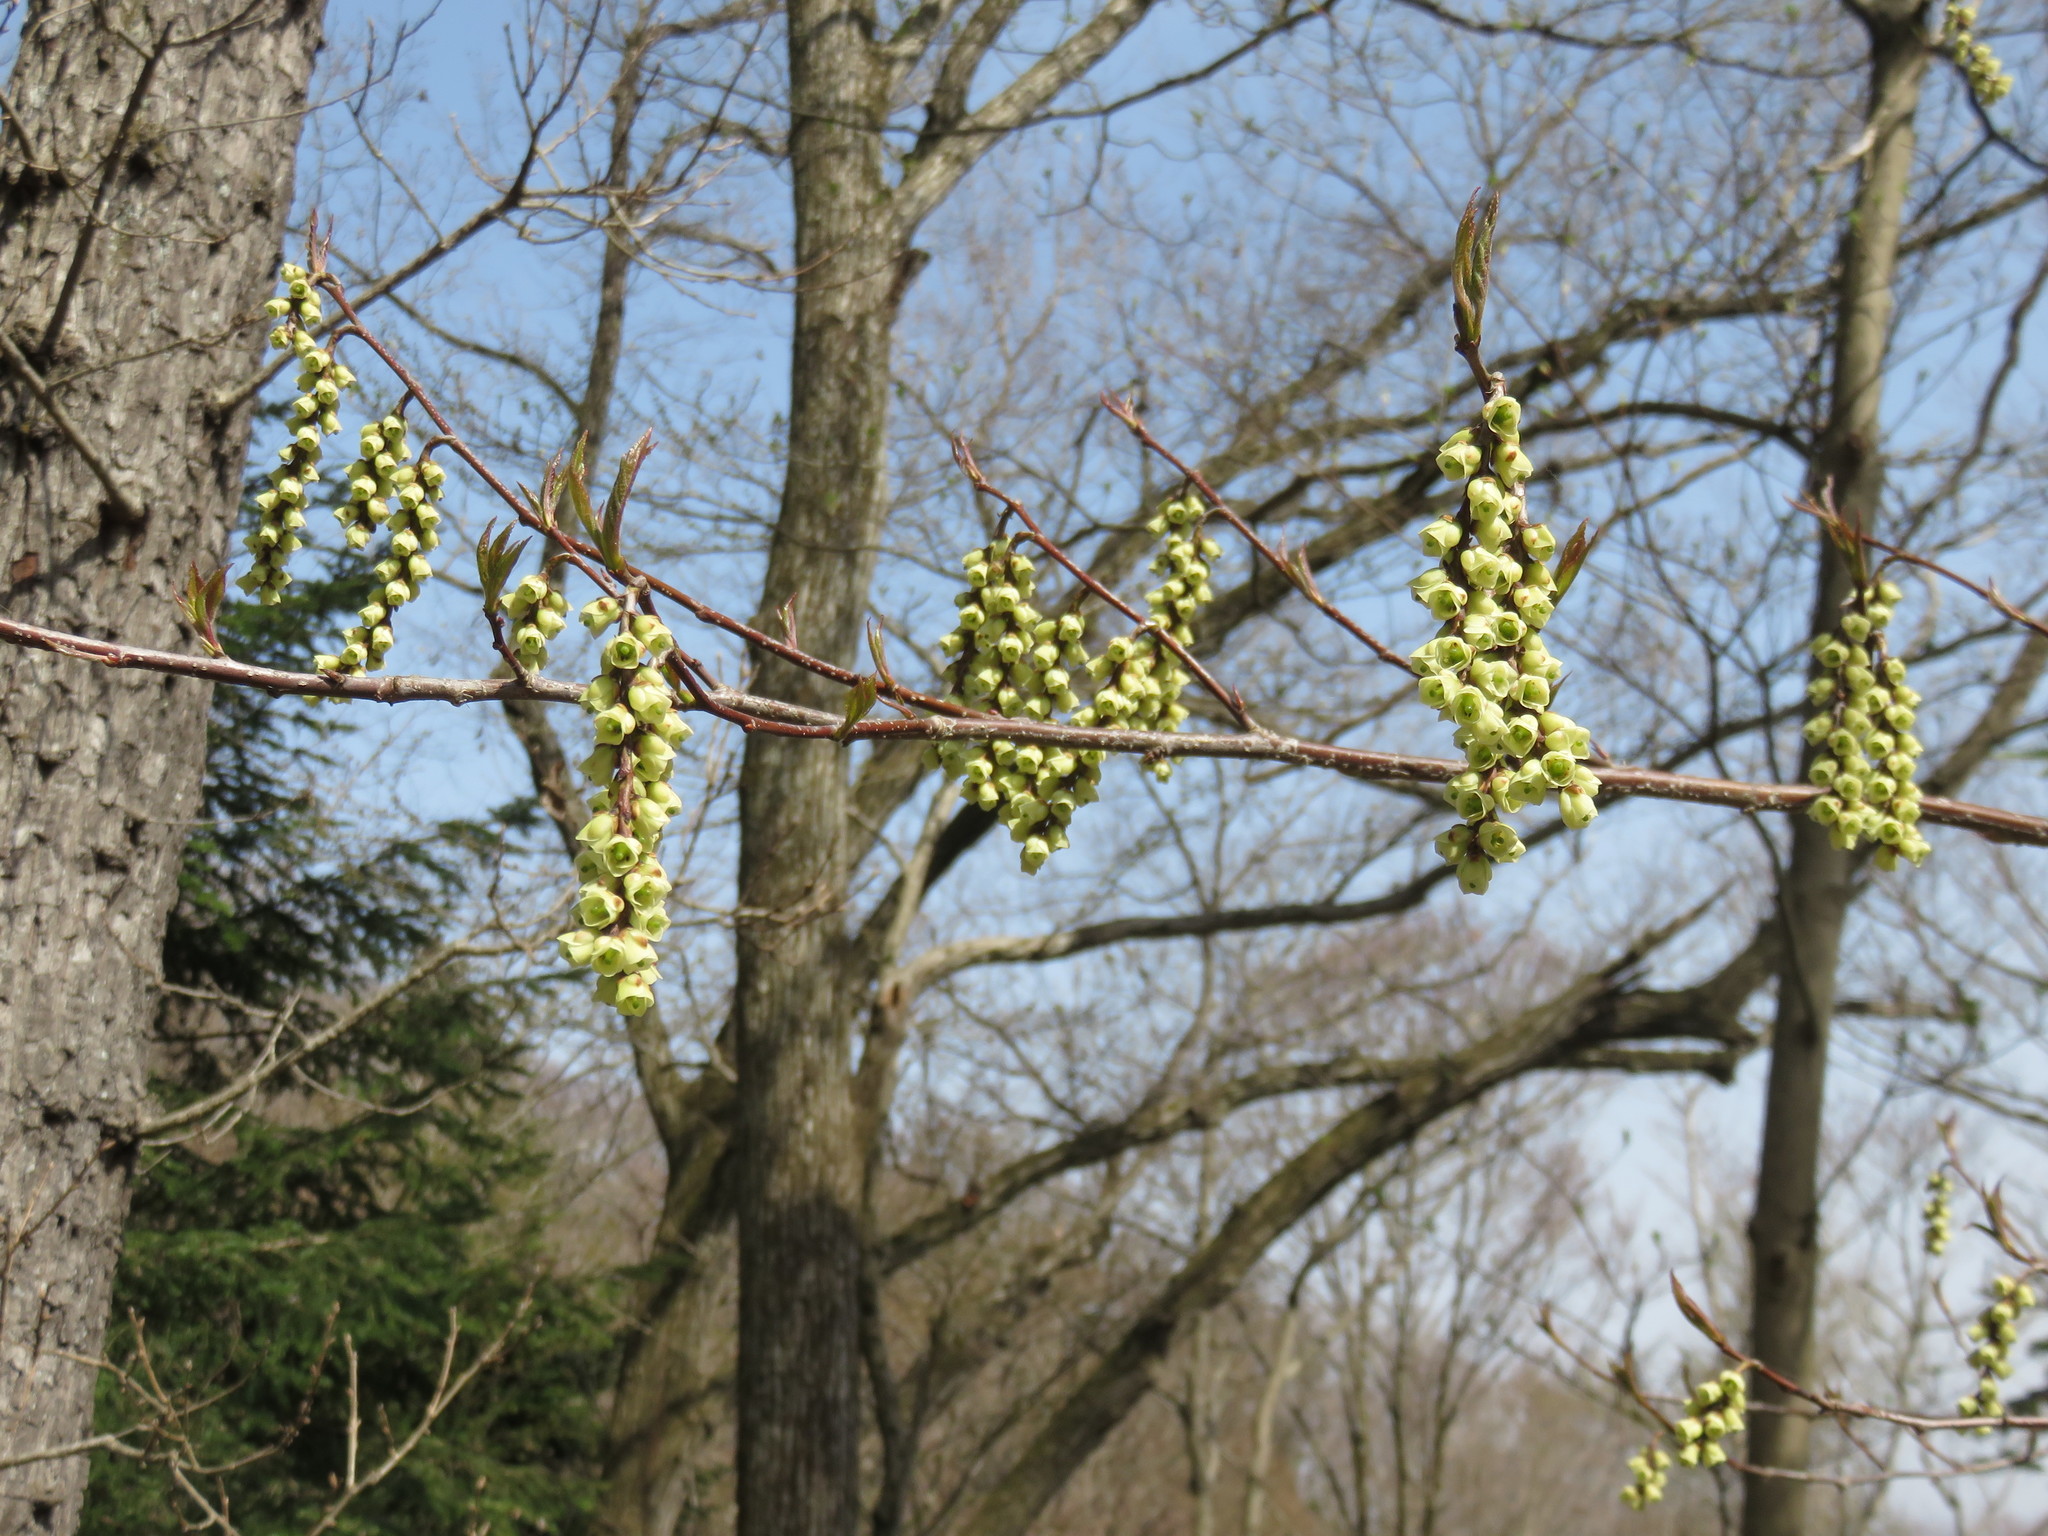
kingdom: Plantae
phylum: Tracheophyta
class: Magnoliopsida
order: Crossosomatales
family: Stachyuraceae
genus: Stachyurus
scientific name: Stachyurus praecox
